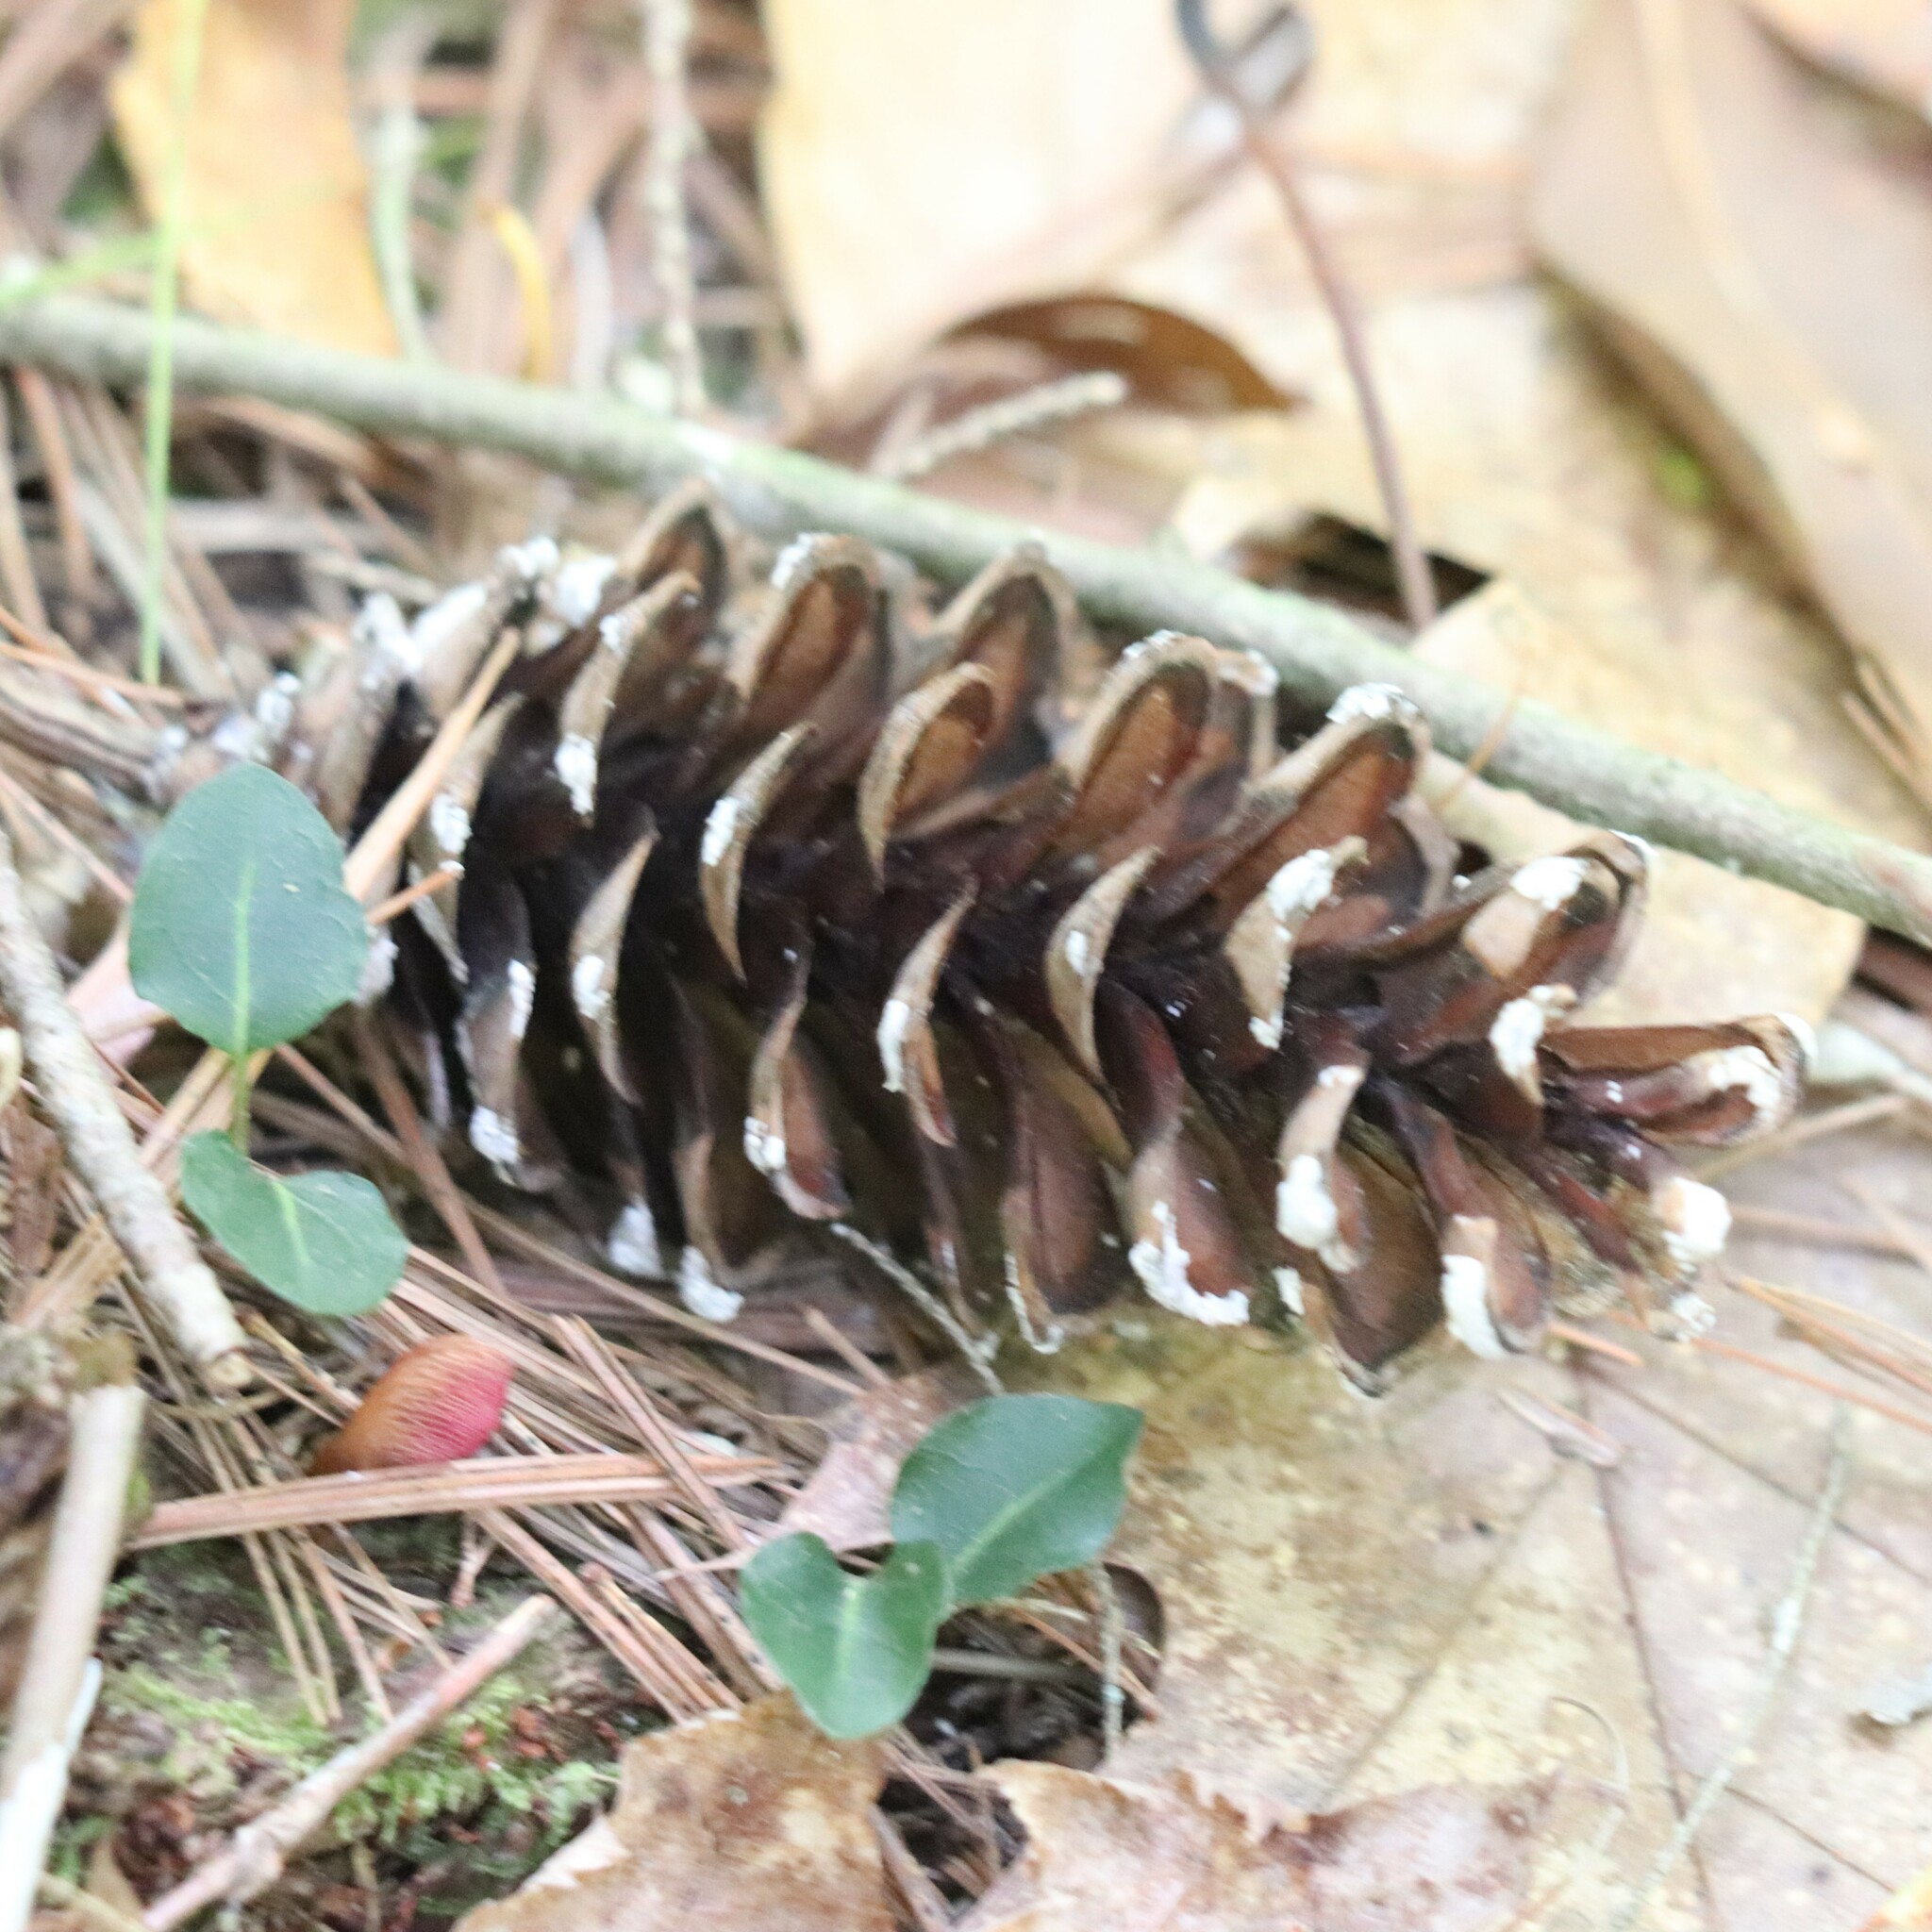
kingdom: Plantae
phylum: Tracheophyta
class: Pinopsida
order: Pinales
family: Pinaceae
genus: Pinus
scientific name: Pinus strobus
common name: Weymouth pine
